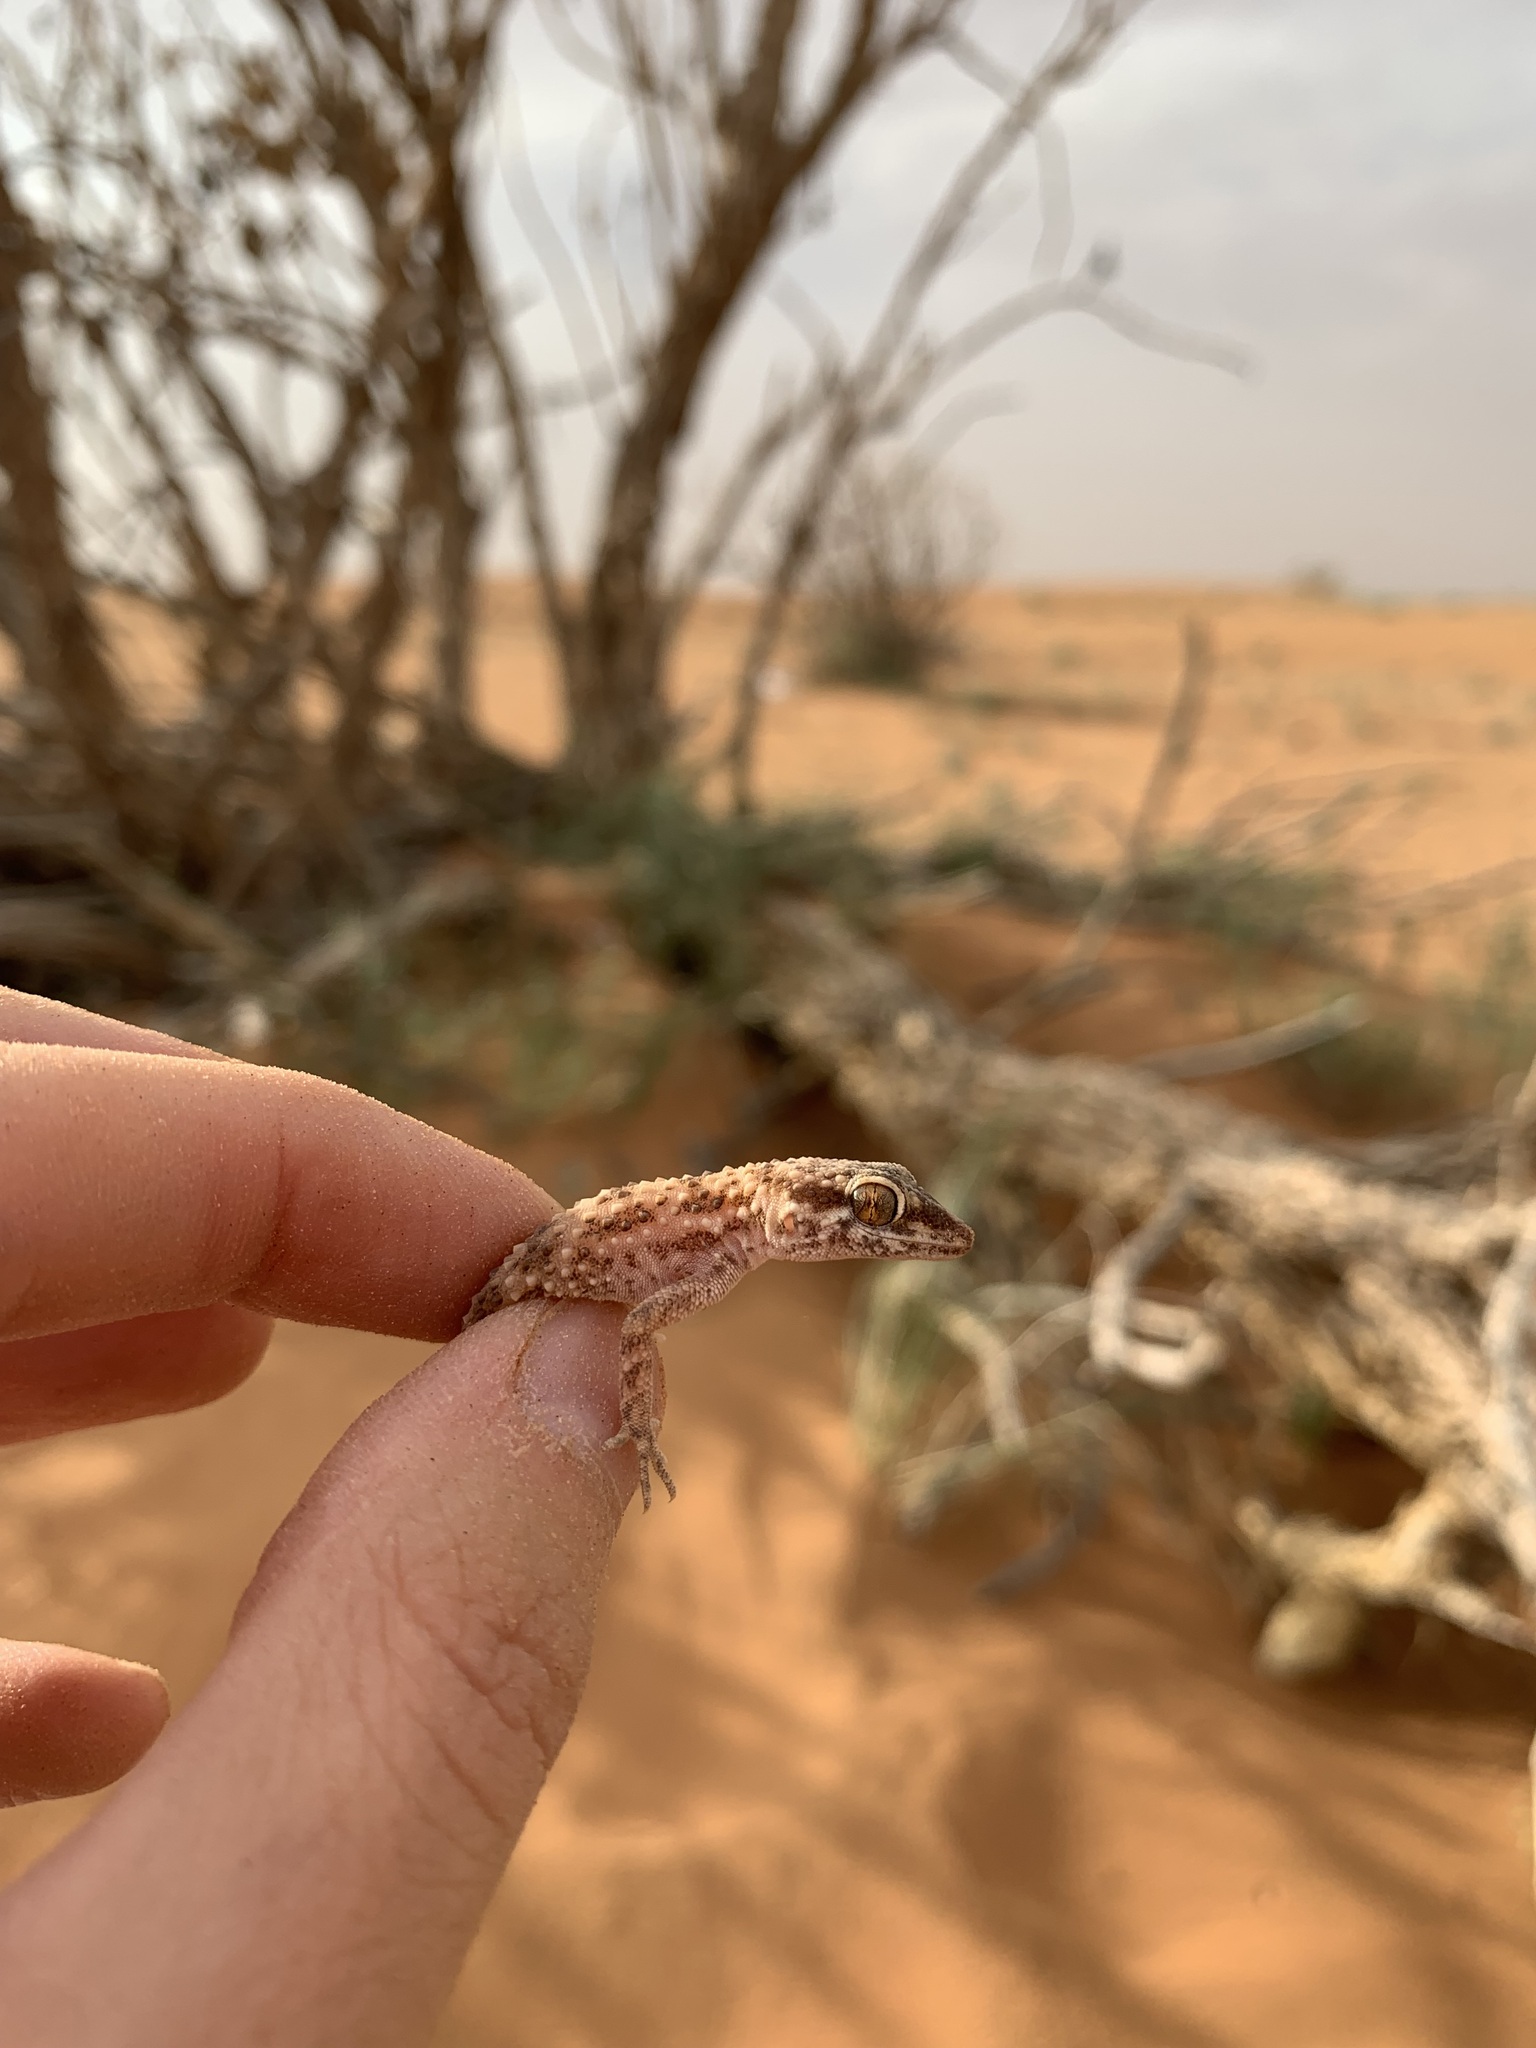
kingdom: Animalia
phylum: Chordata
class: Squamata
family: Gekkonidae
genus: Bunopus
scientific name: Bunopus tuberculatus
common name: Southern tuberculated gecko
